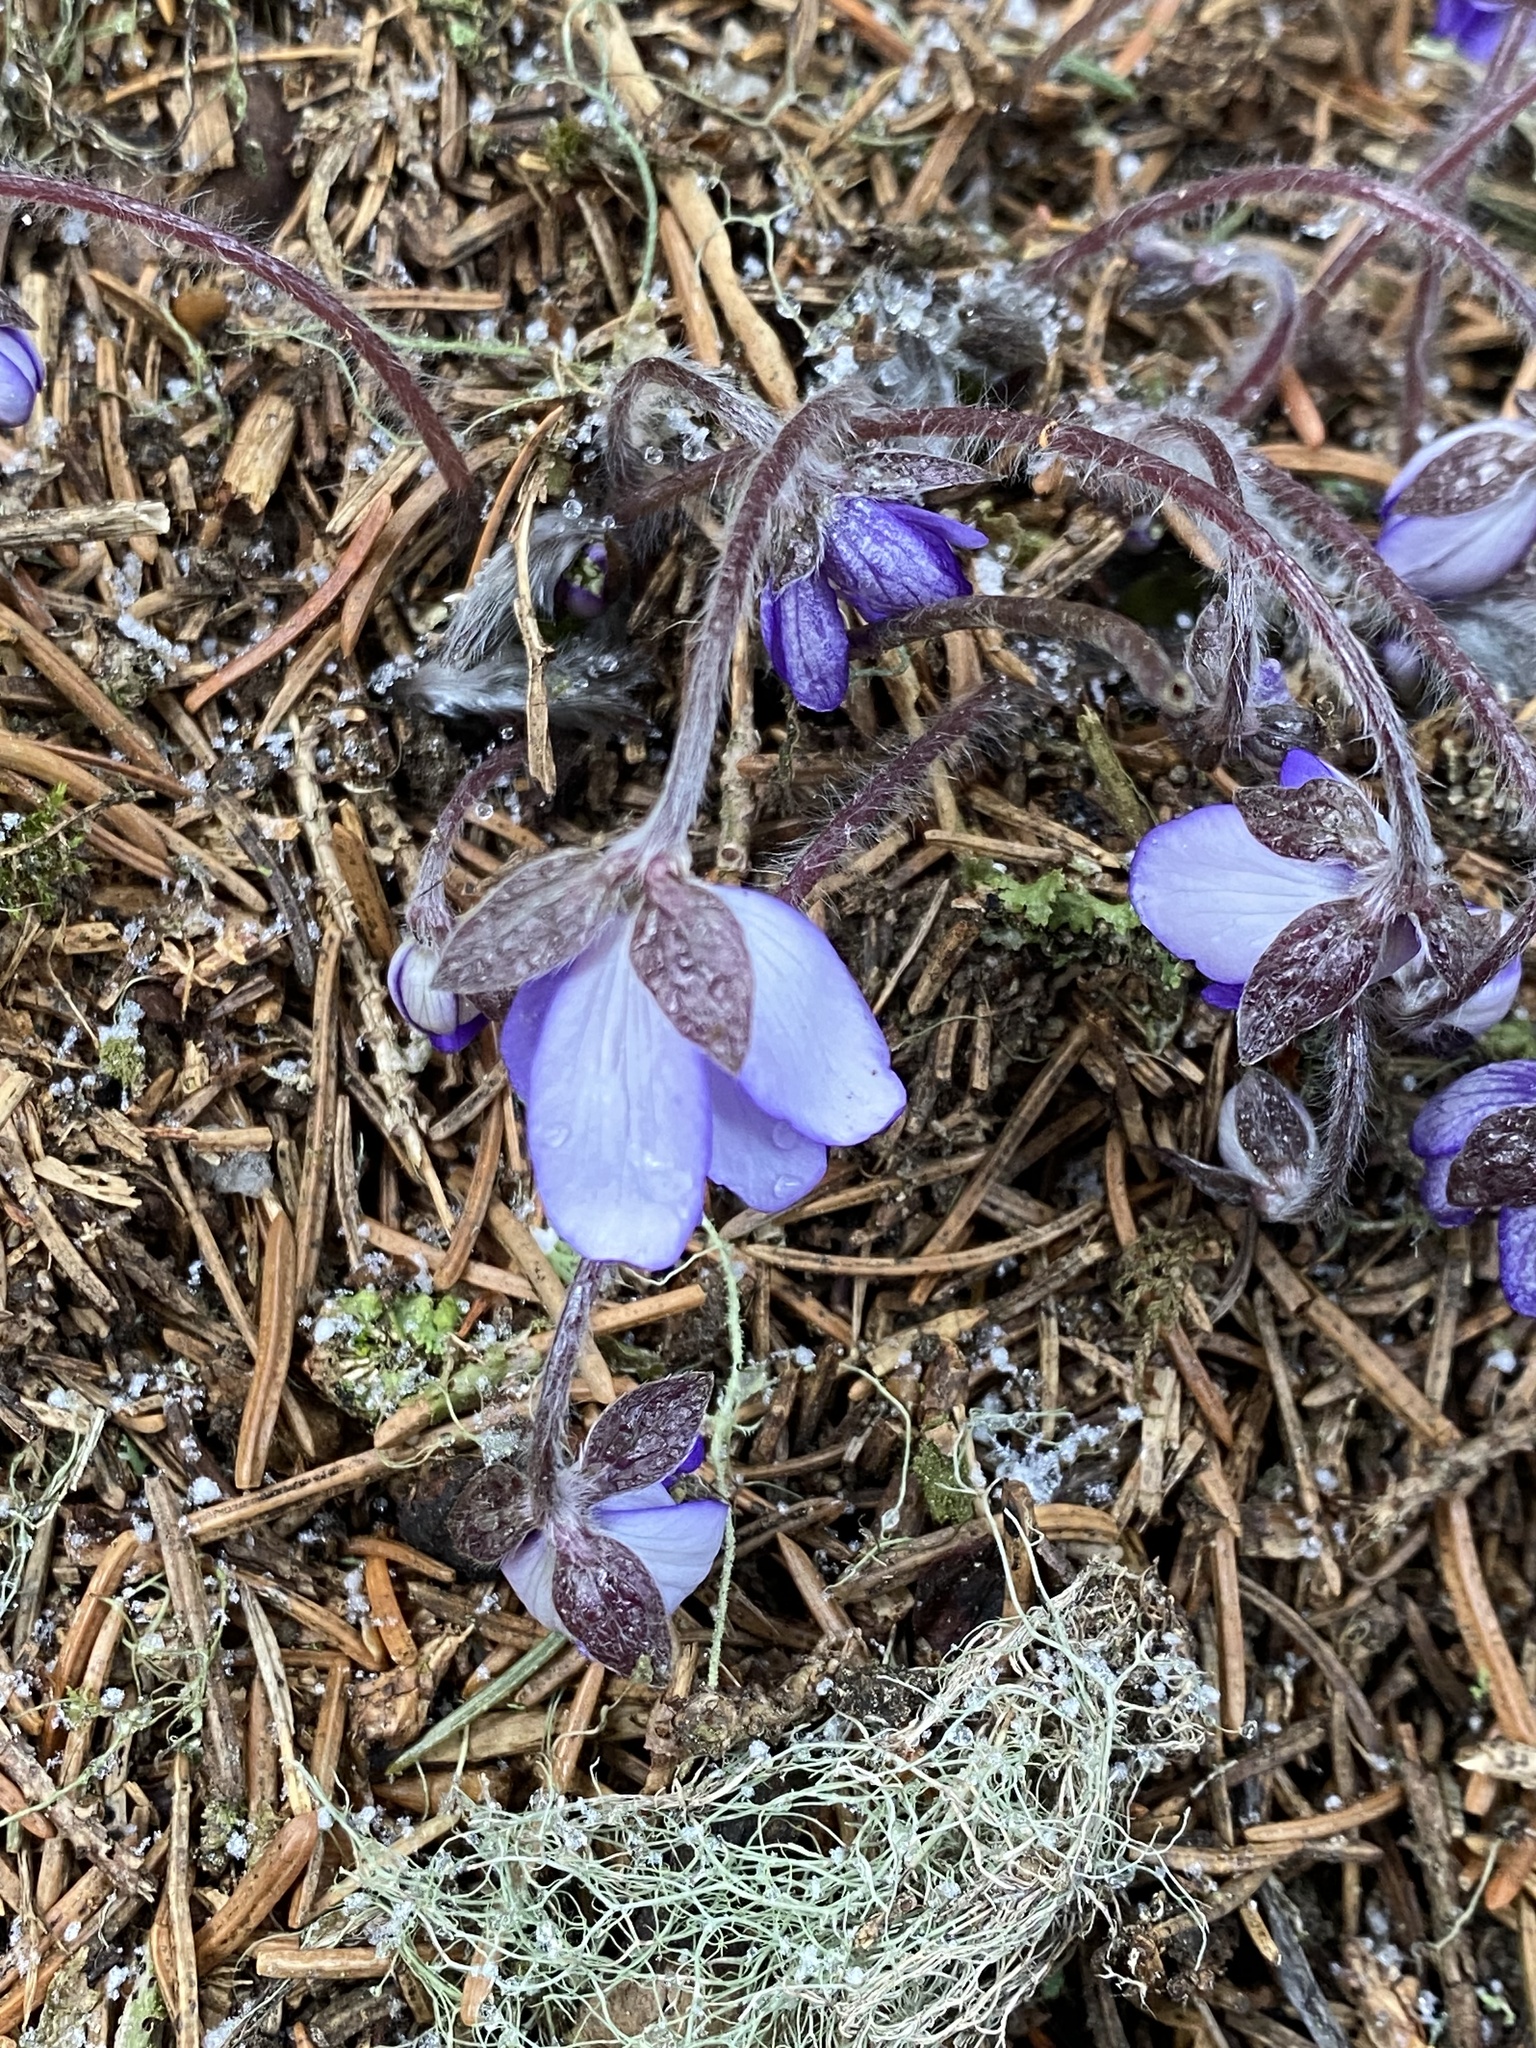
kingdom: Plantae
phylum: Tracheophyta
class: Magnoliopsida
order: Ranunculales
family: Ranunculaceae
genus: Hepatica
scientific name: Hepatica nobilis
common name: Liverleaf
